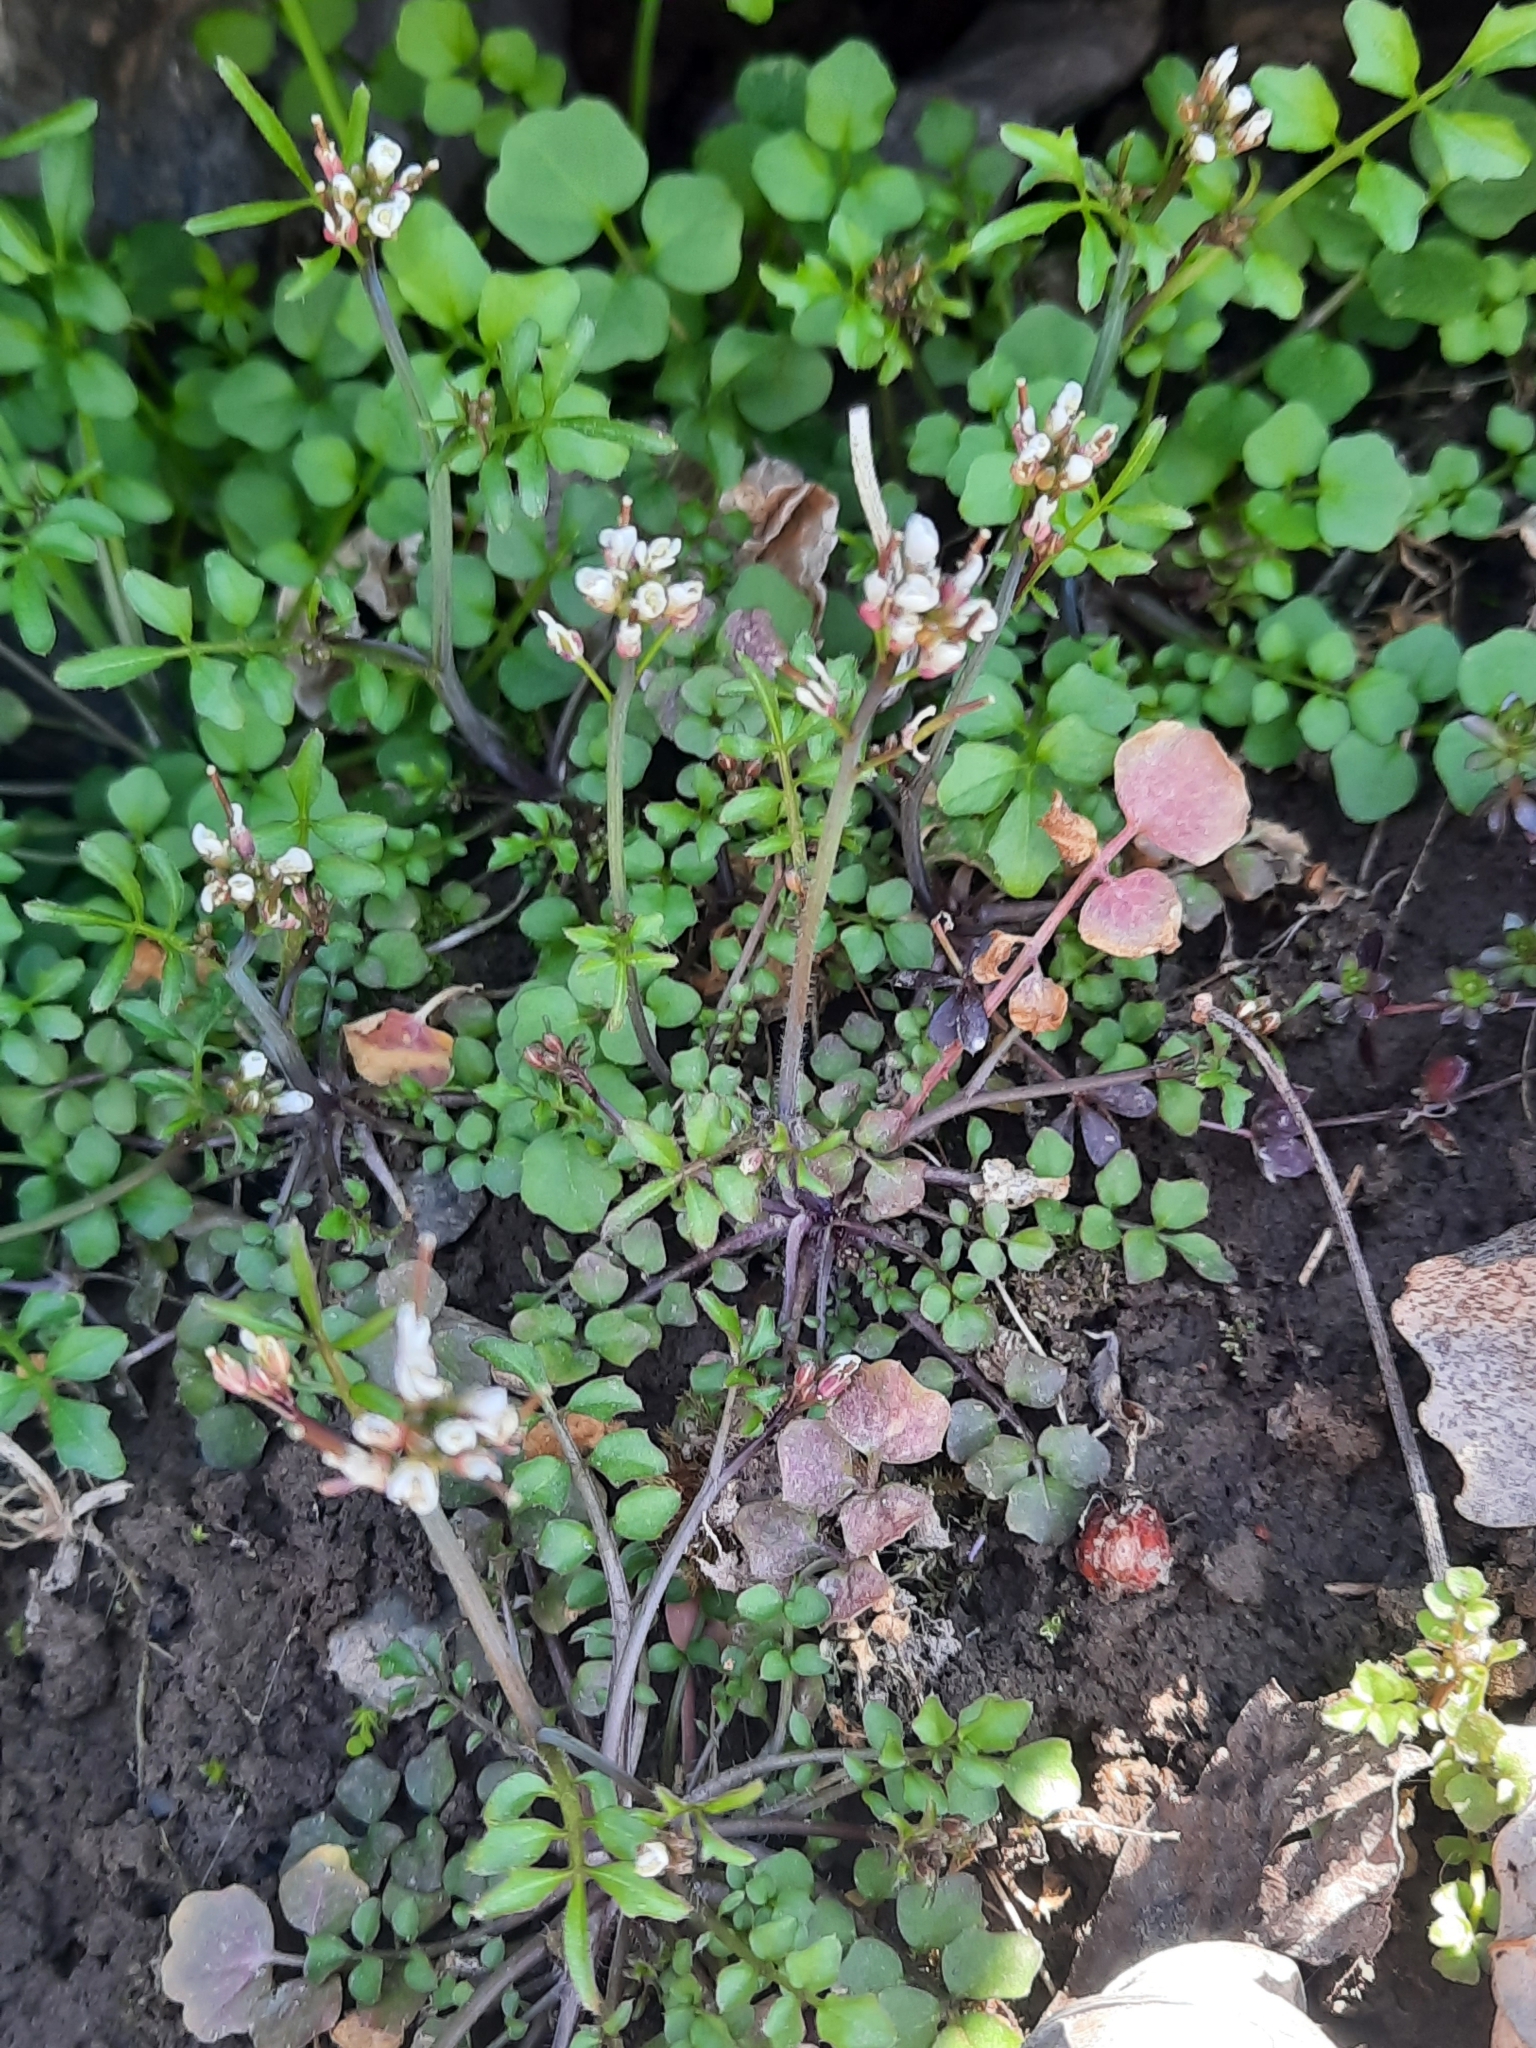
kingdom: Plantae
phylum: Tracheophyta
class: Magnoliopsida
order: Brassicales
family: Brassicaceae
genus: Cardamine
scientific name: Cardamine hirsuta
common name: Hairy bittercress
